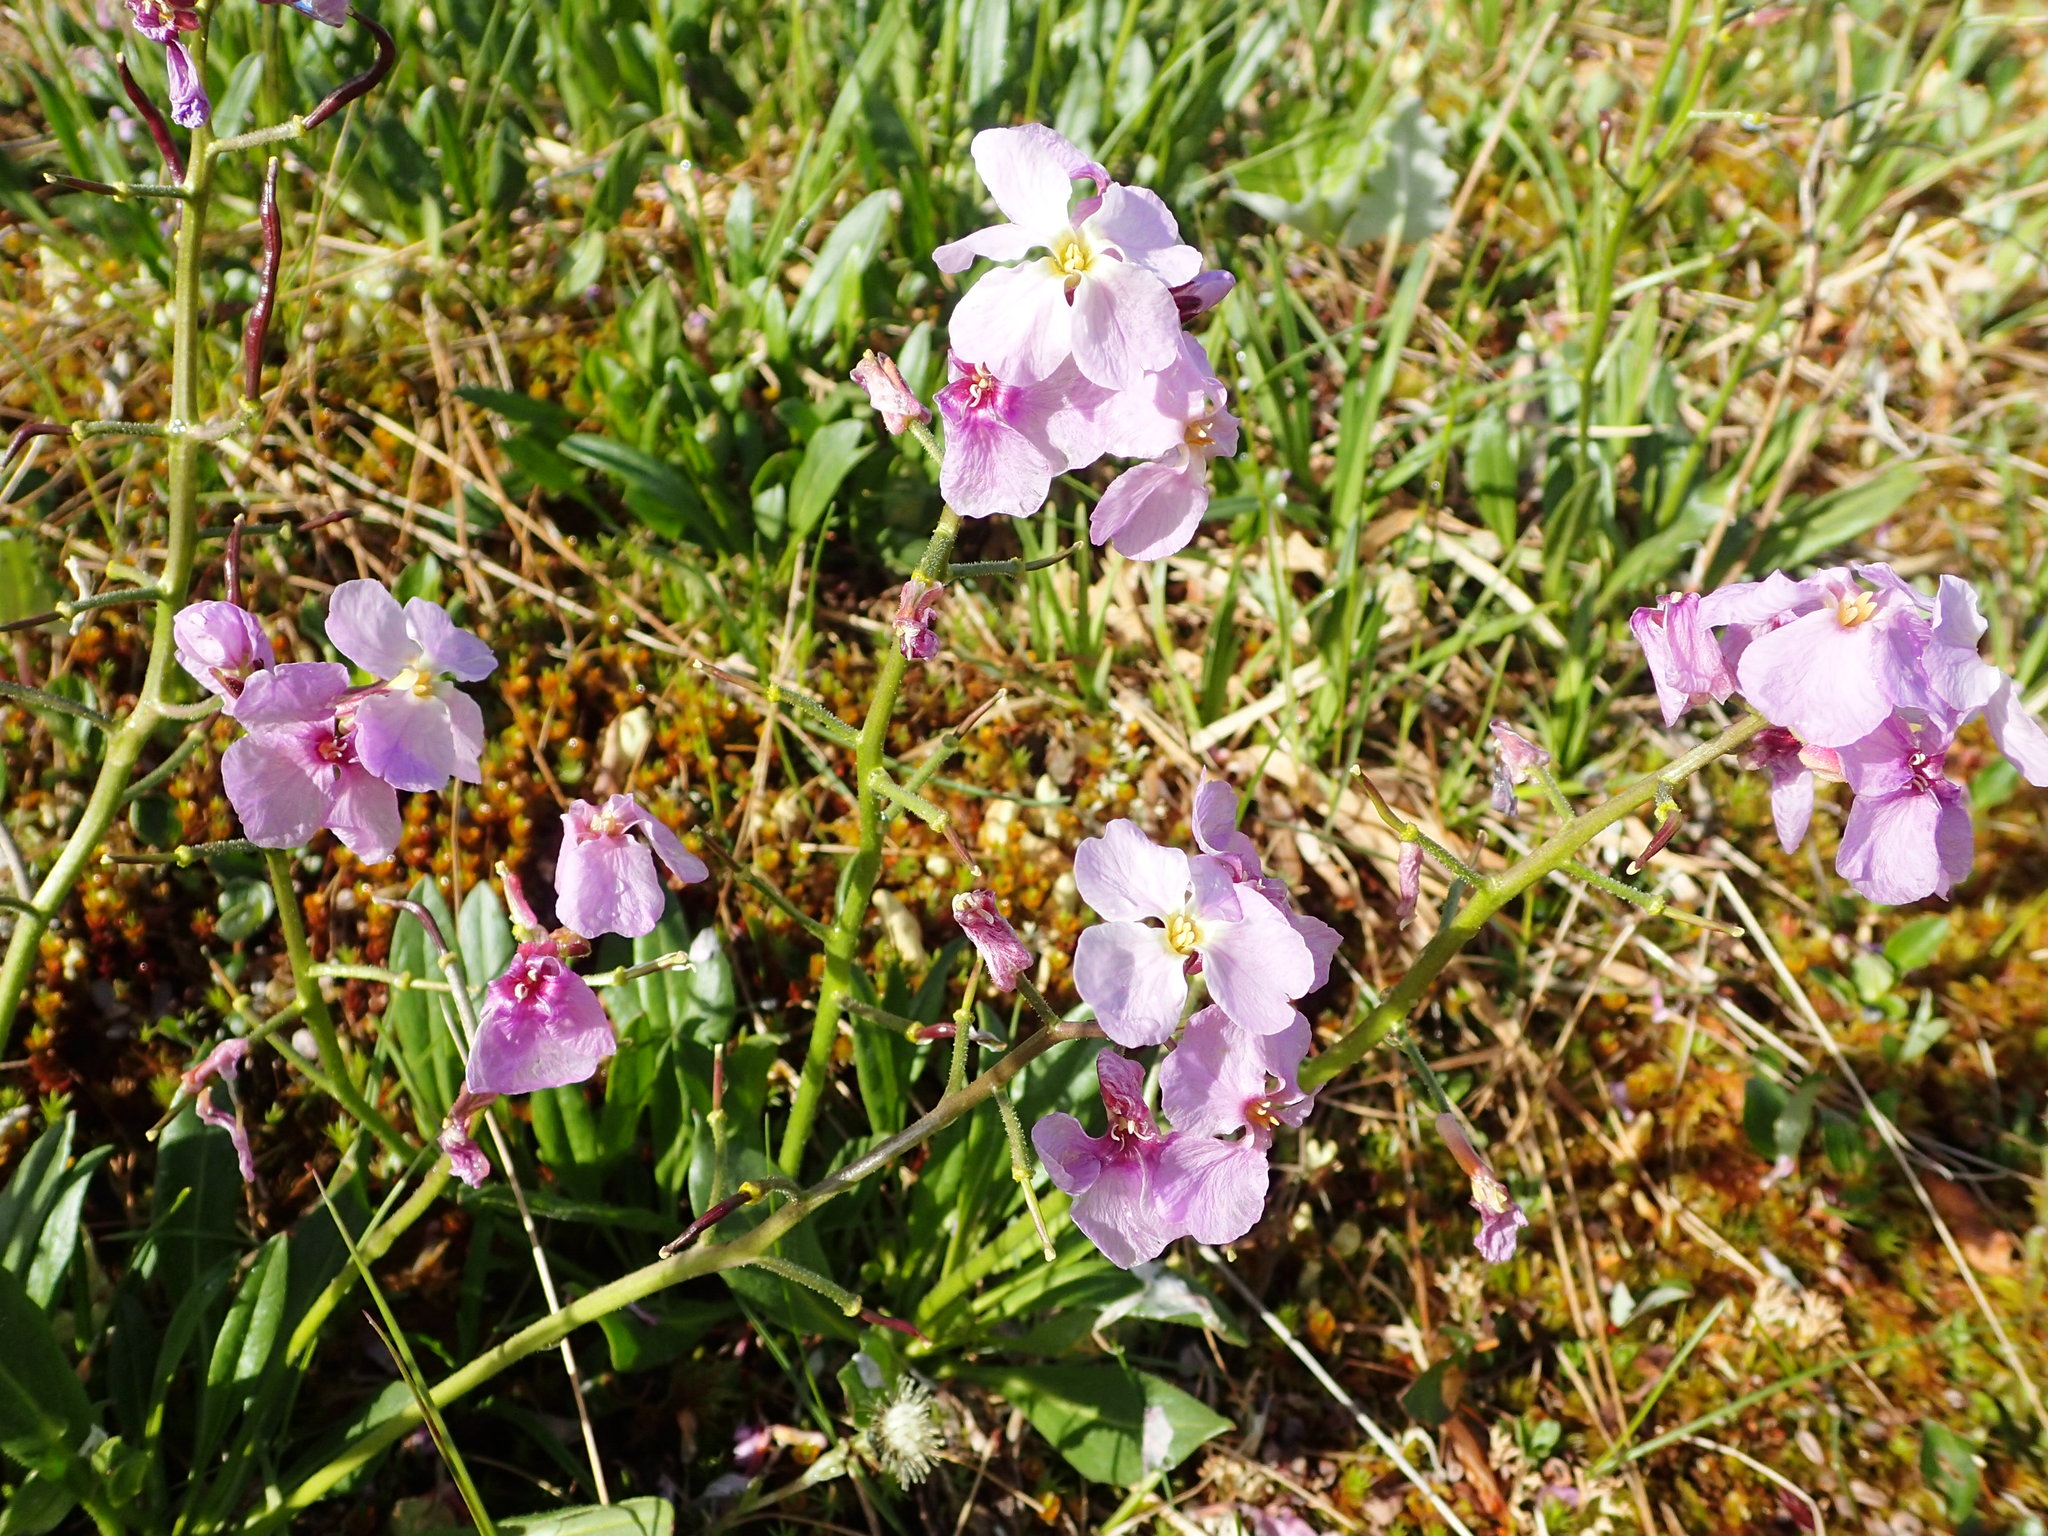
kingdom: Plantae
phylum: Tracheophyta
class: Magnoliopsida
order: Brassicales
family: Brassicaceae
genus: Parrya
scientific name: Parrya nudicaulis
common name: Naked-stemmed false wallflower
